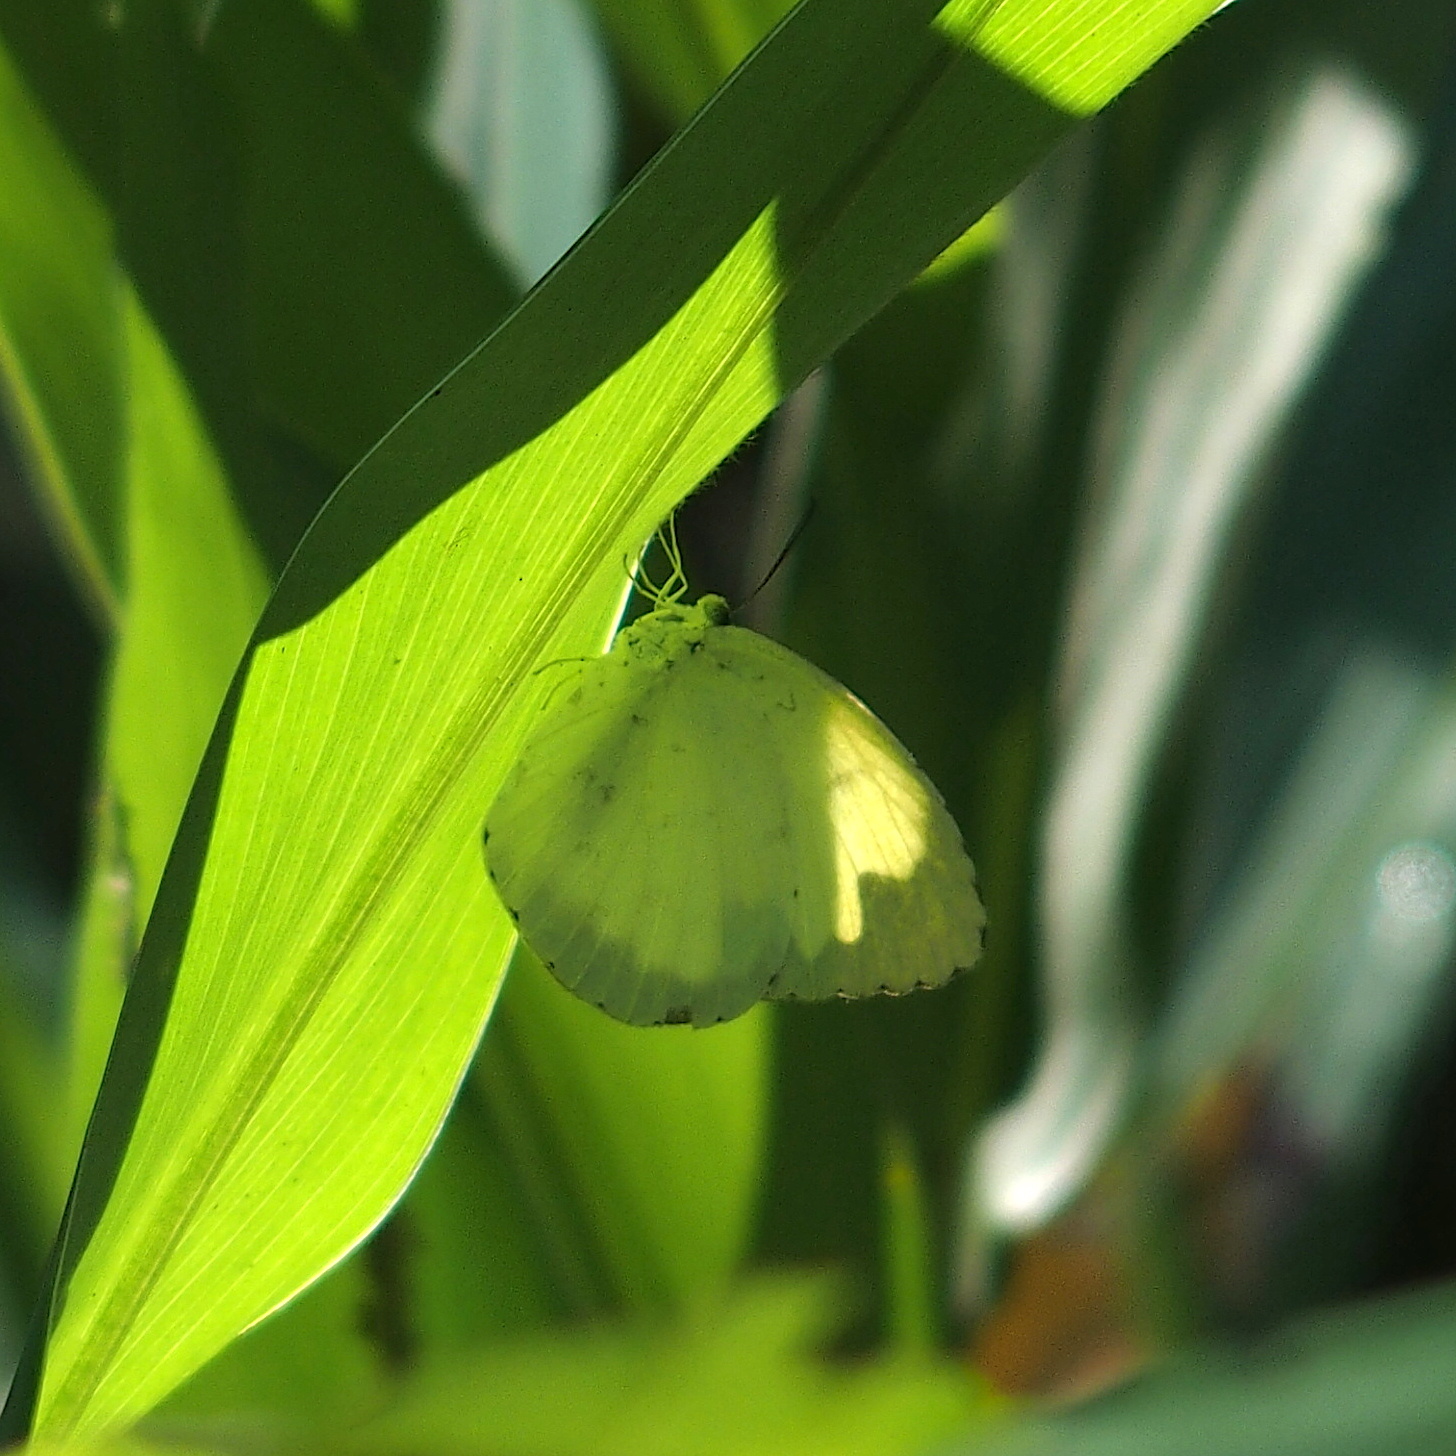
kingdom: Animalia
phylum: Arthropoda
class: Insecta
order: Lepidoptera
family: Pieridae
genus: Eurema
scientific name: Eurema blanda
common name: Three-spot grass yellow
